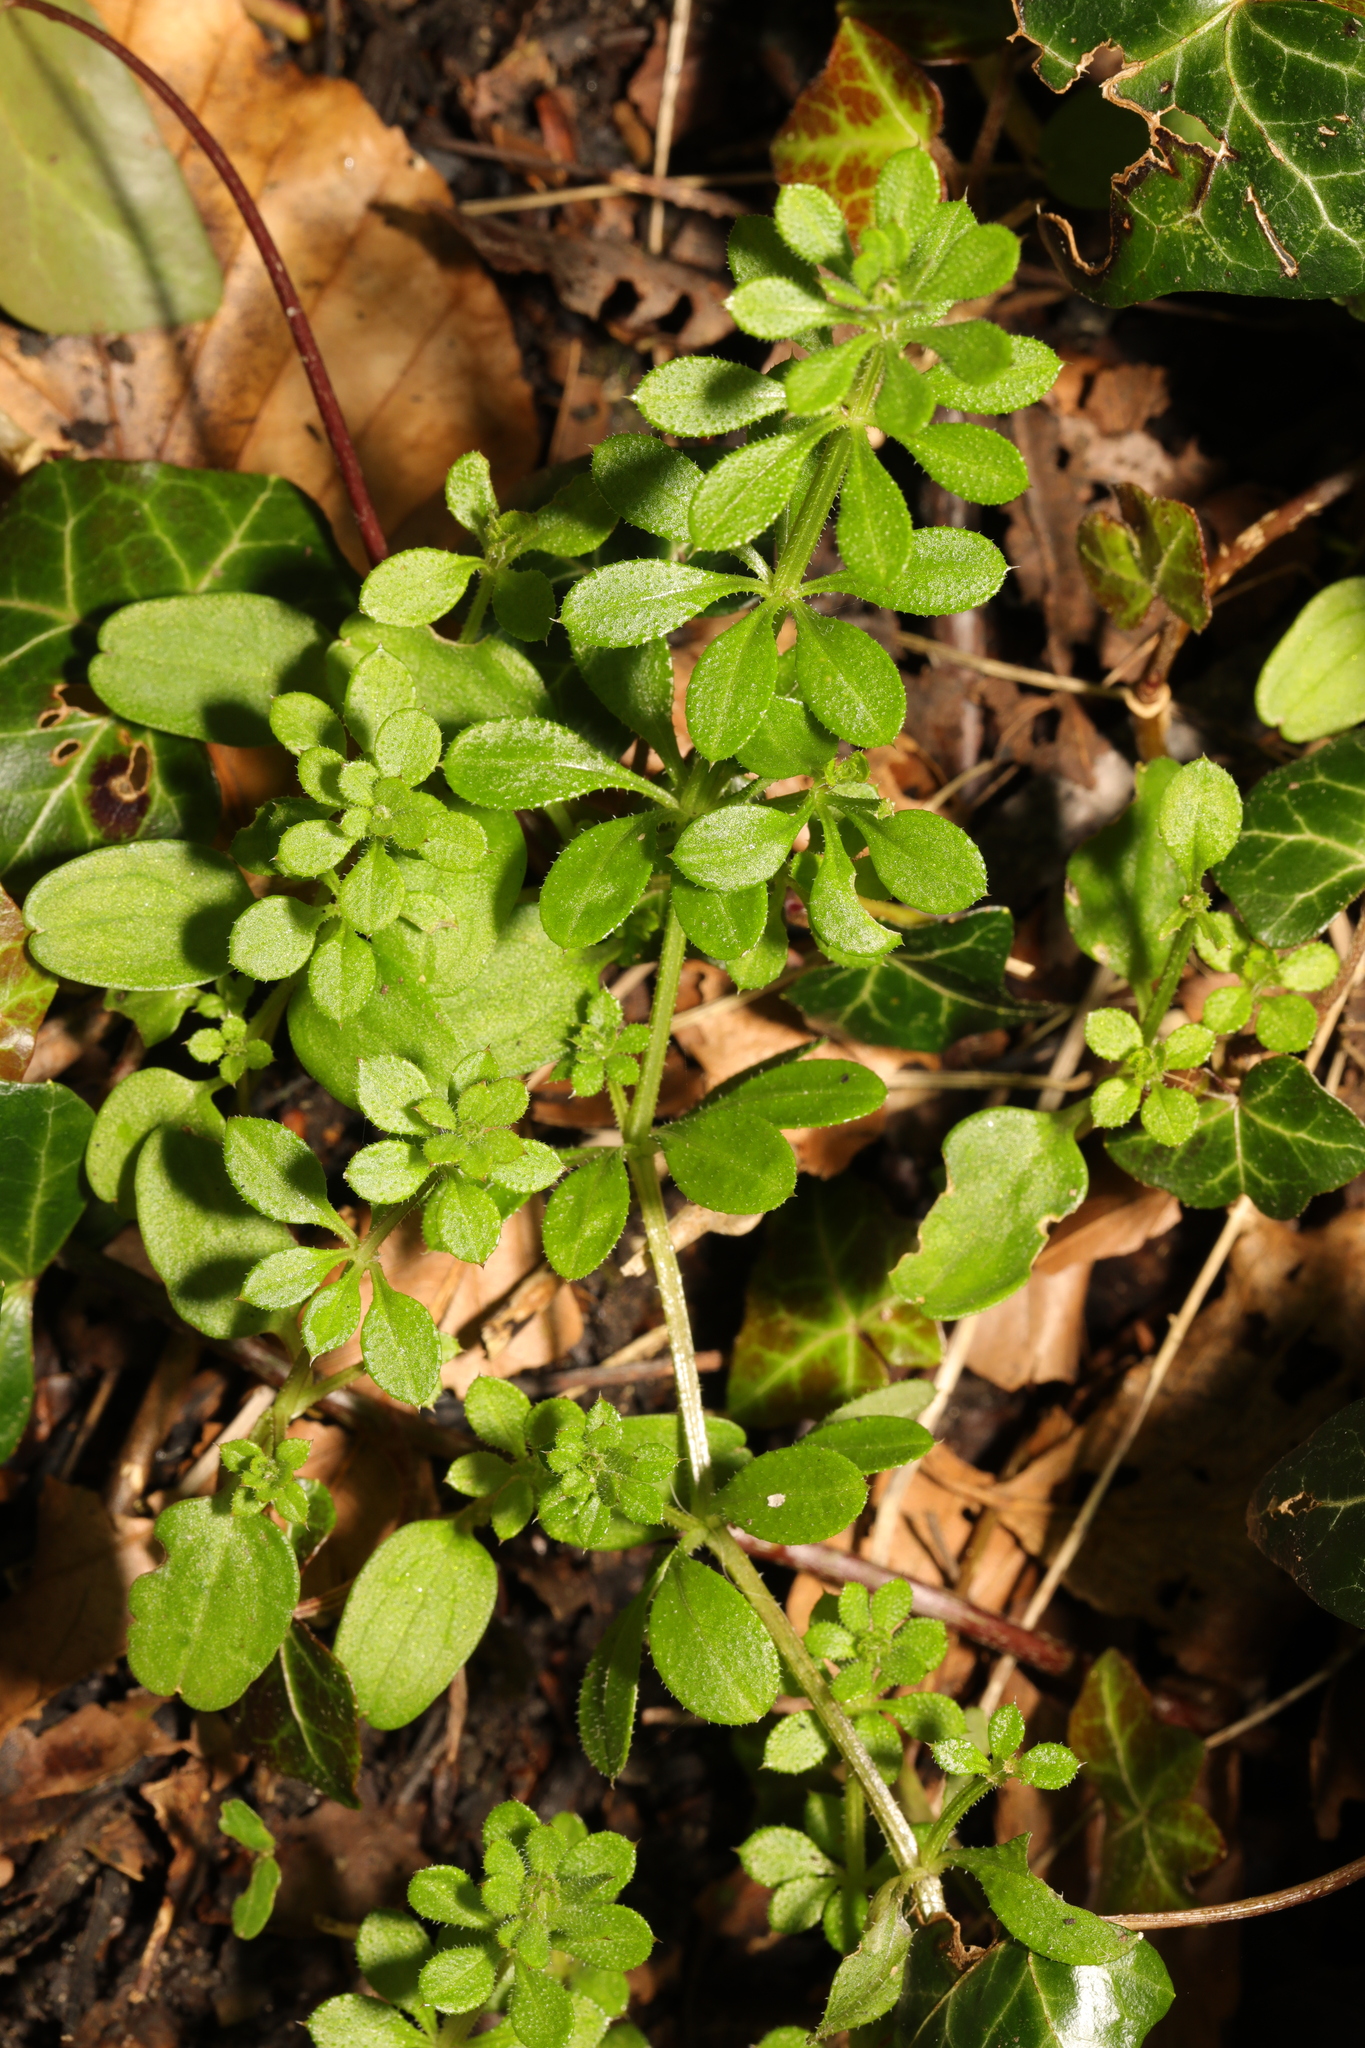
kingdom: Plantae
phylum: Tracheophyta
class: Magnoliopsida
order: Gentianales
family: Rubiaceae
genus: Galium
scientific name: Galium aparine
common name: Cleavers
